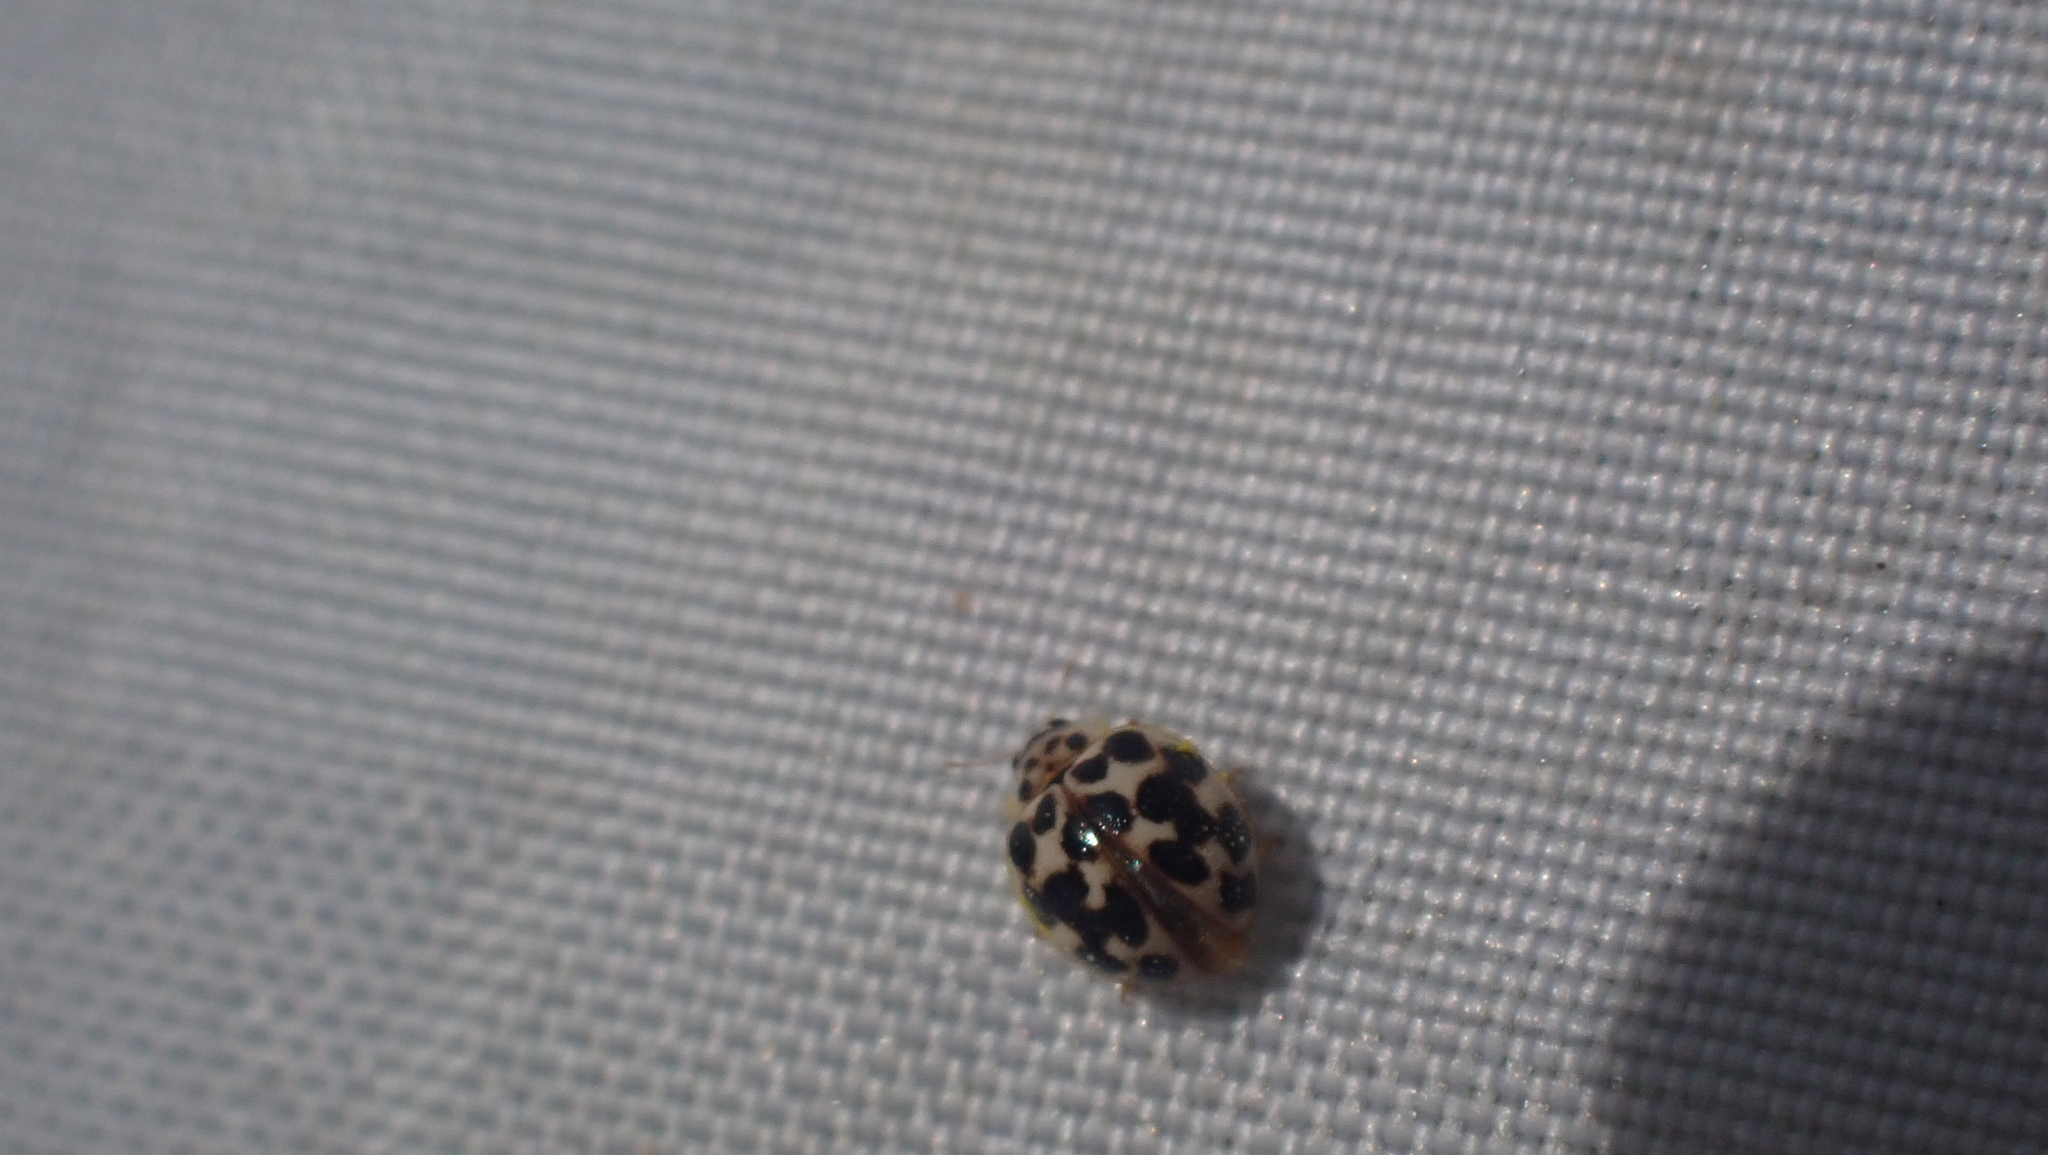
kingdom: Animalia
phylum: Arthropoda
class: Insecta
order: Coleoptera
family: Coccinellidae
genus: Psyllobora
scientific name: Psyllobora vigintimaculata
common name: Ladybird beetle
